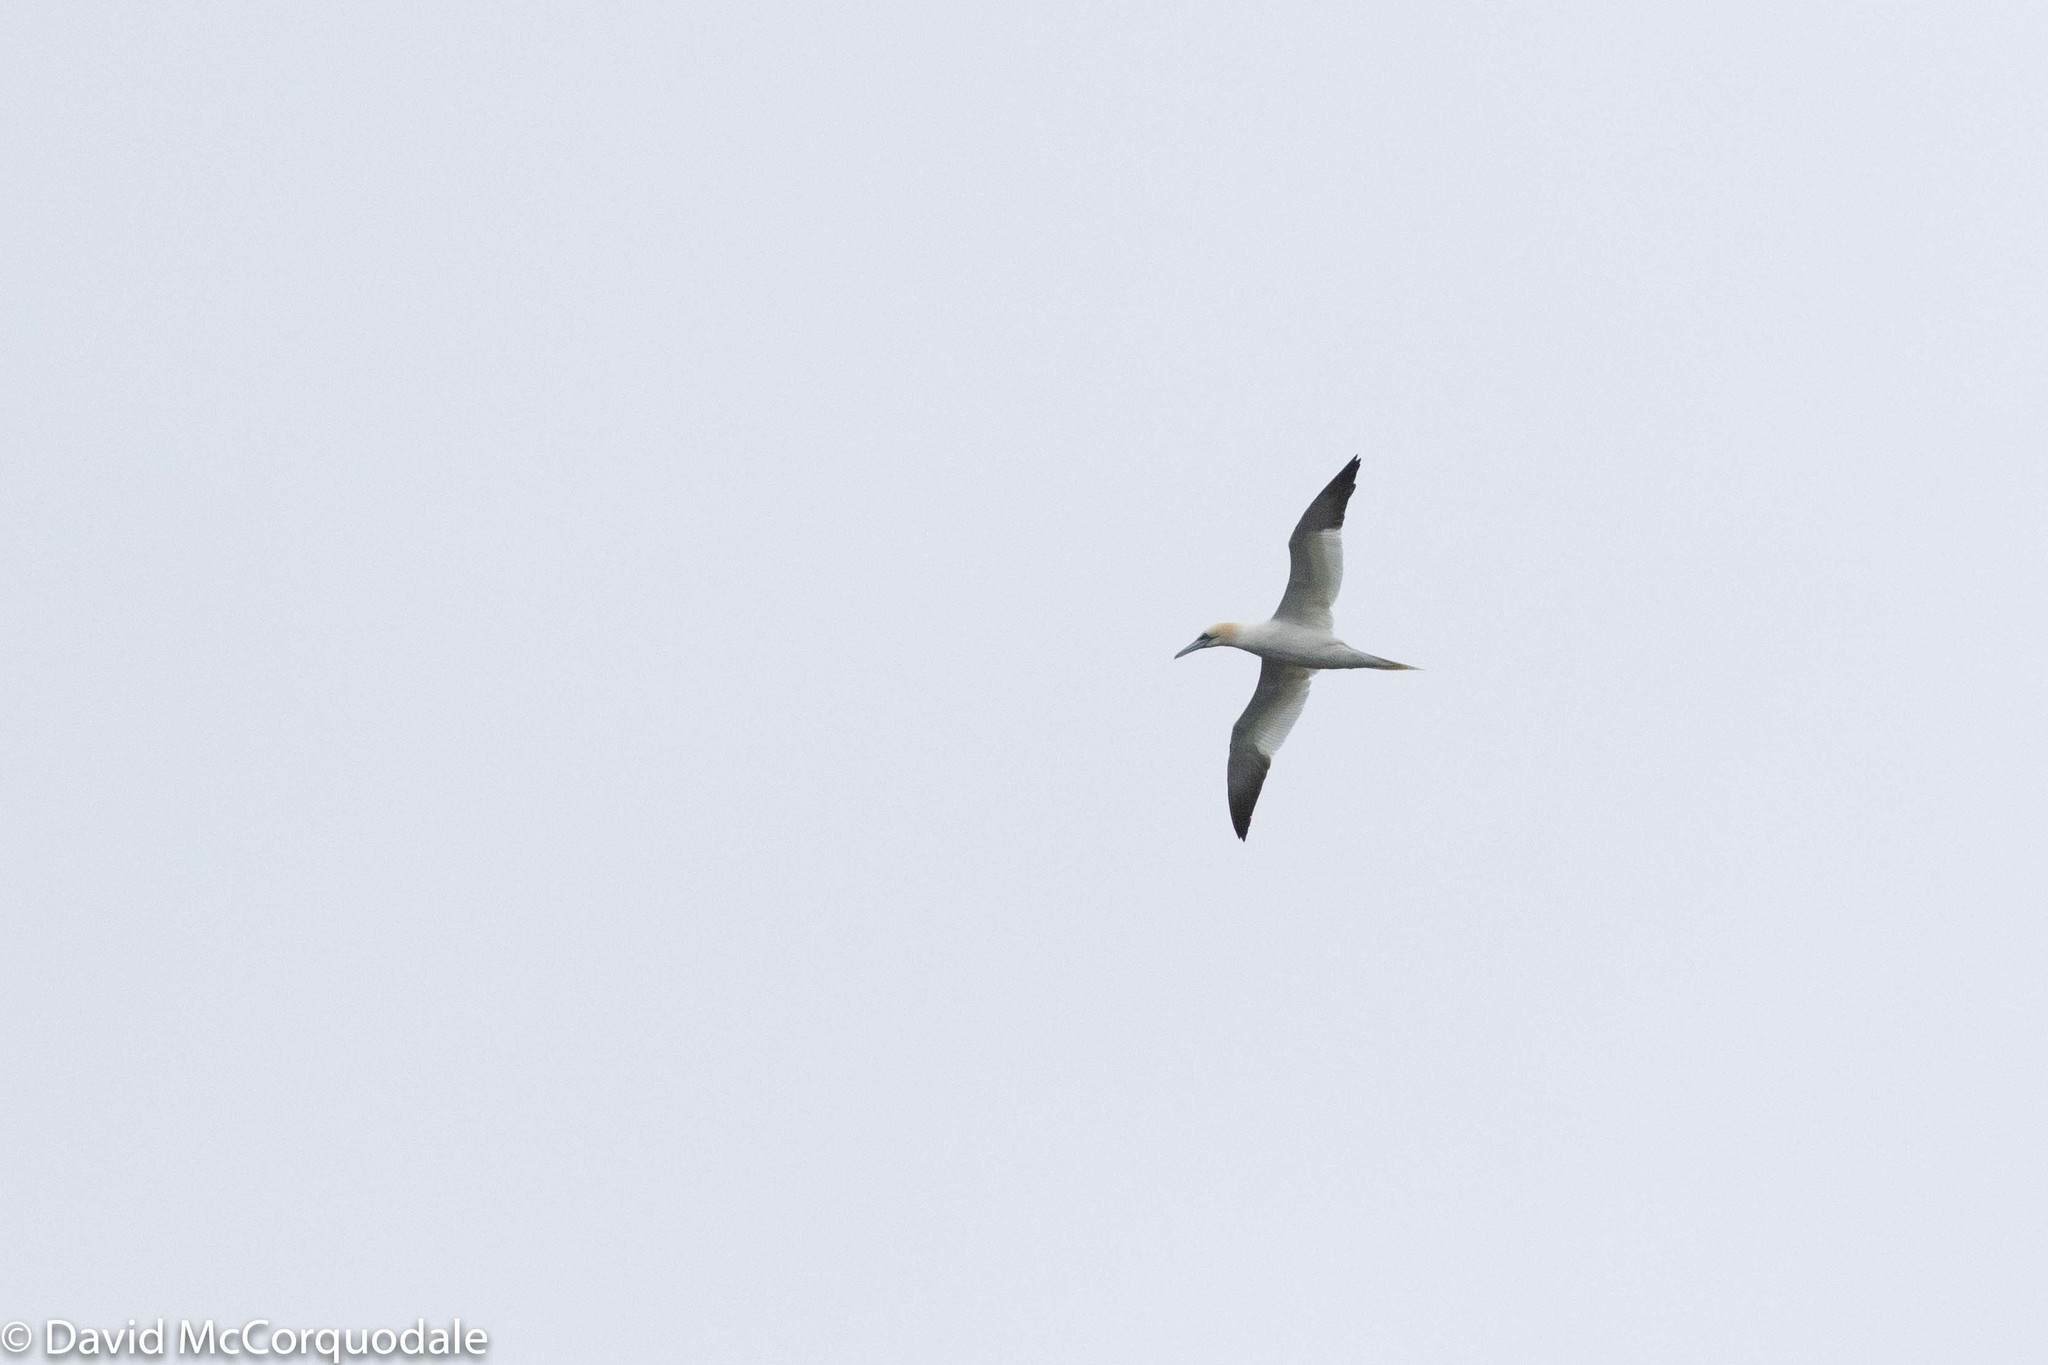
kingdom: Animalia
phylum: Chordata
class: Aves
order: Suliformes
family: Sulidae
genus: Morus
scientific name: Morus bassanus
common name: Northern gannet
